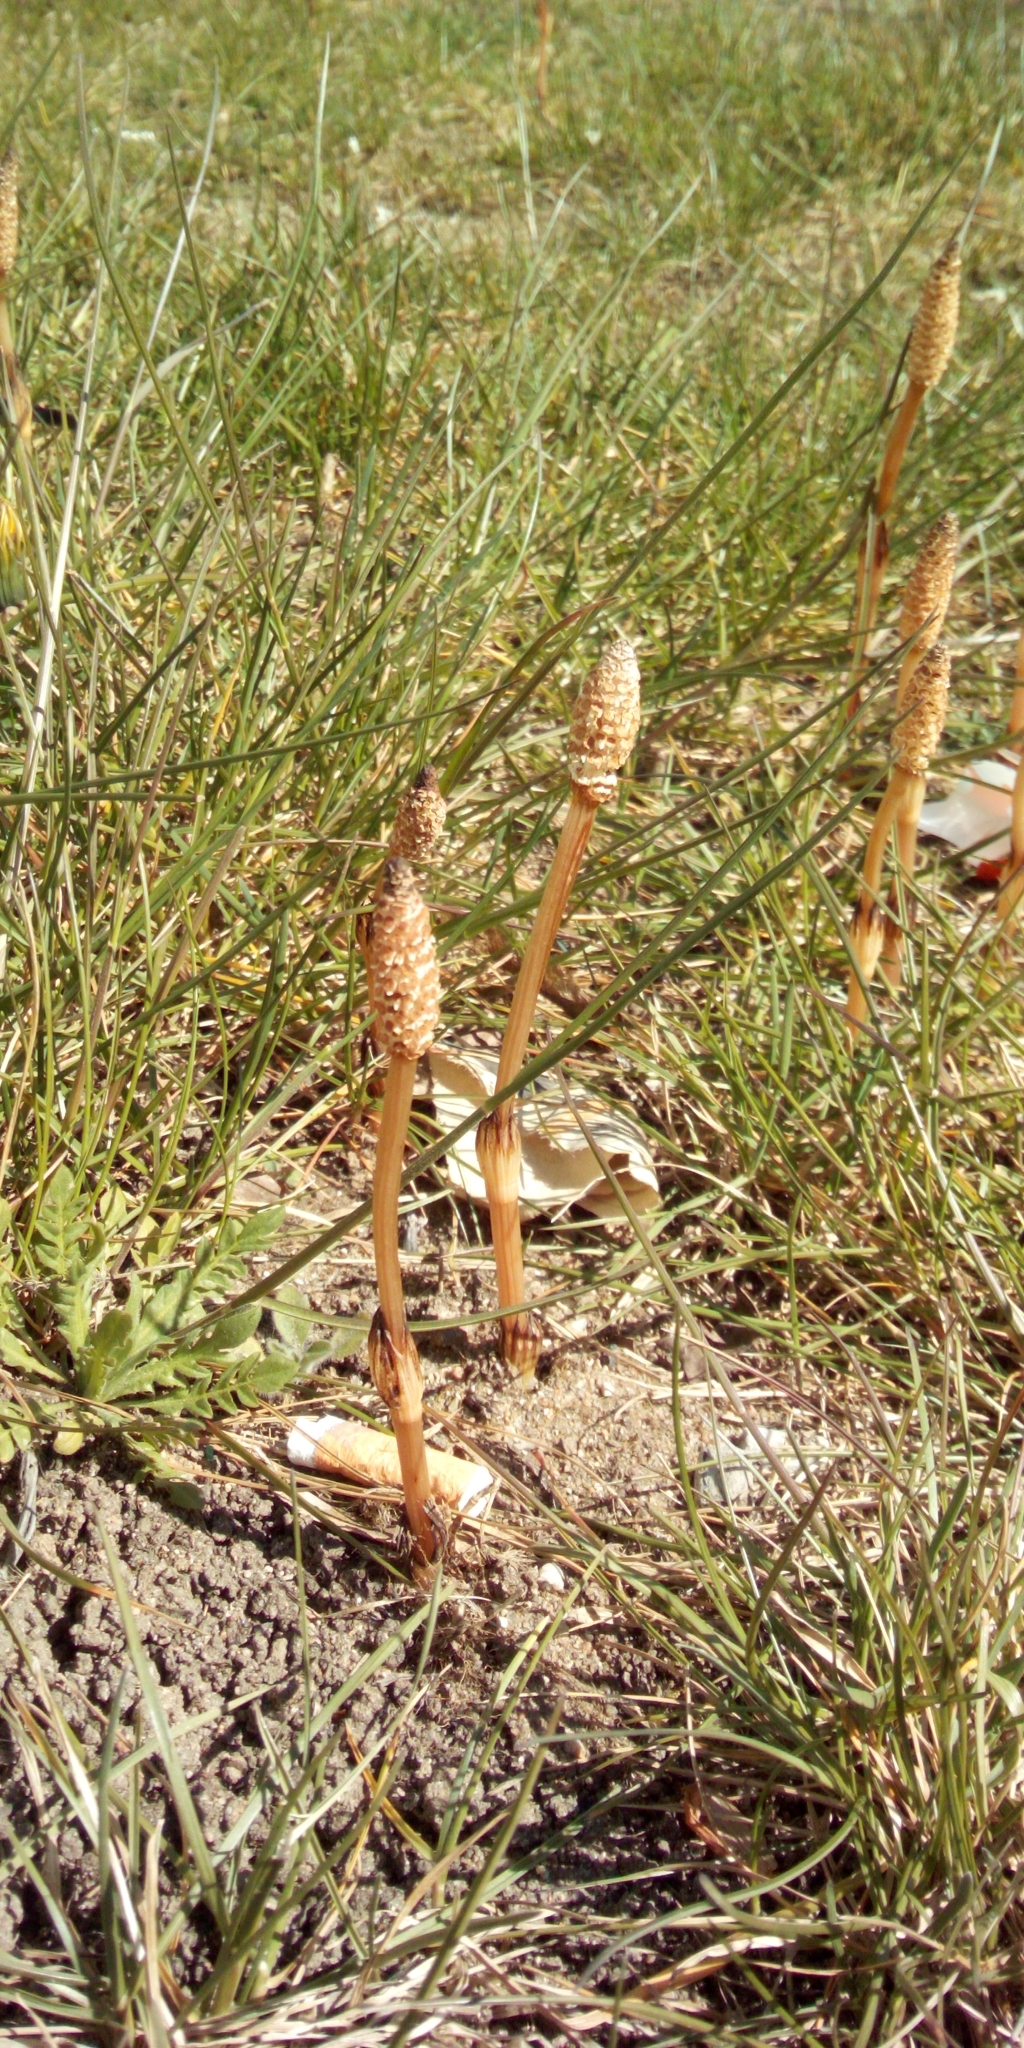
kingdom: Plantae
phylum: Tracheophyta
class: Polypodiopsida
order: Equisetales
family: Equisetaceae
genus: Equisetum
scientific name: Equisetum arvense
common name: Field horsetail
